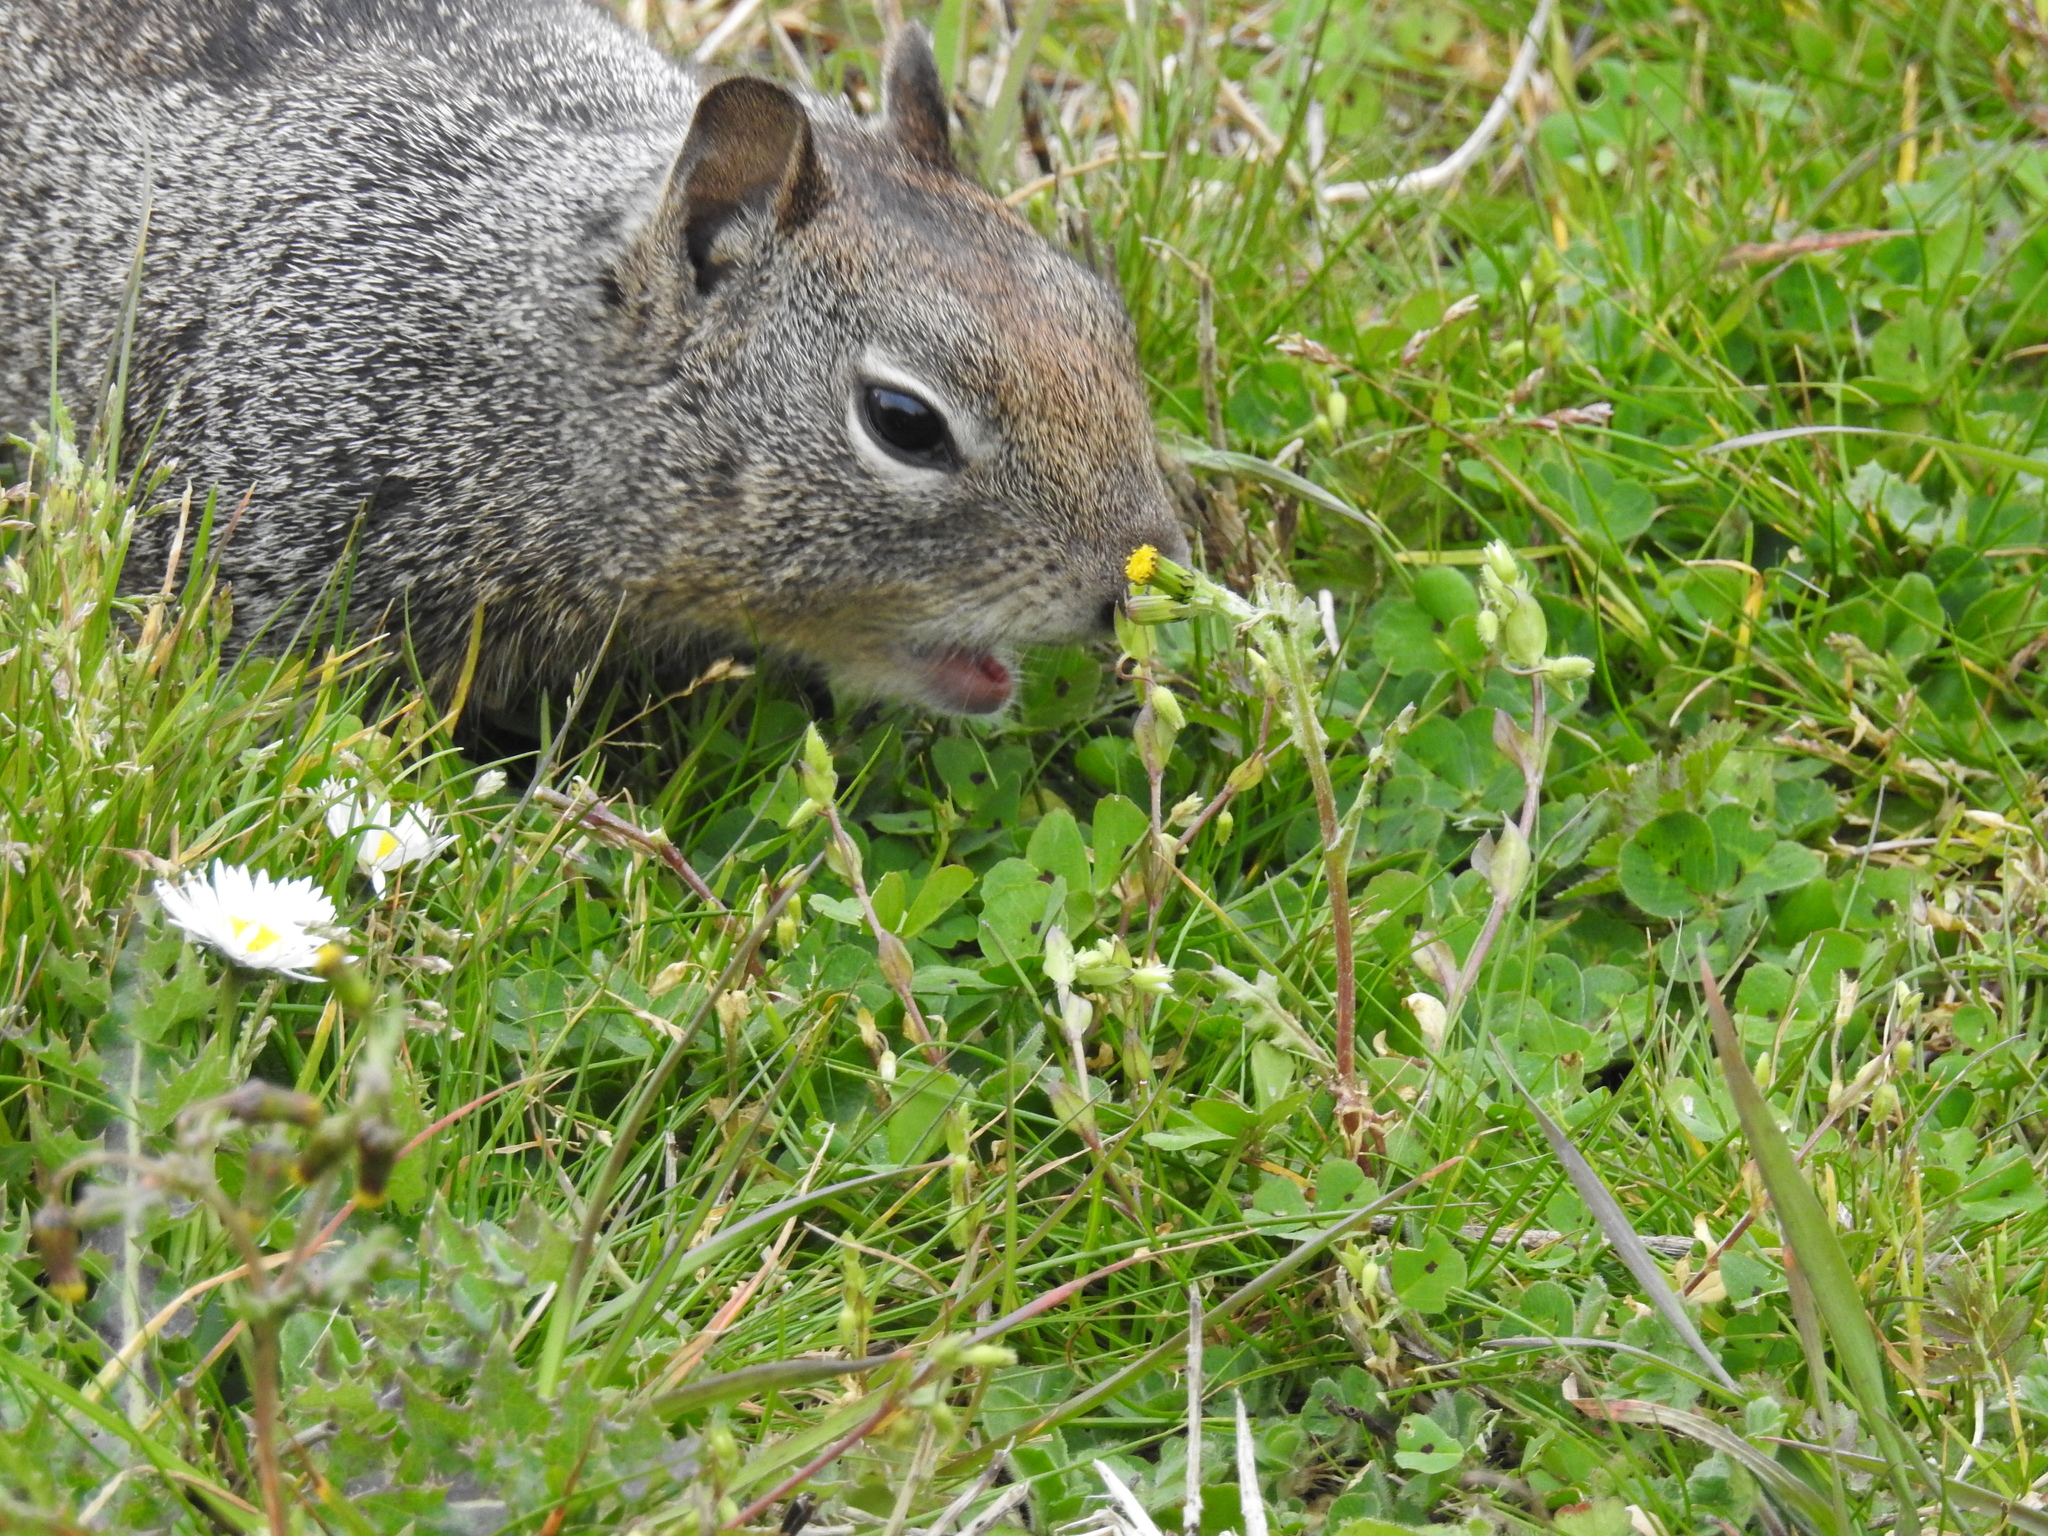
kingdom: Animalia
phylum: Chordata
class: Mammalia
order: Rodentia
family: Sciuridae
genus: Otospermophilus
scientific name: Otospermophilus beecheyi
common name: California ground squirrel
